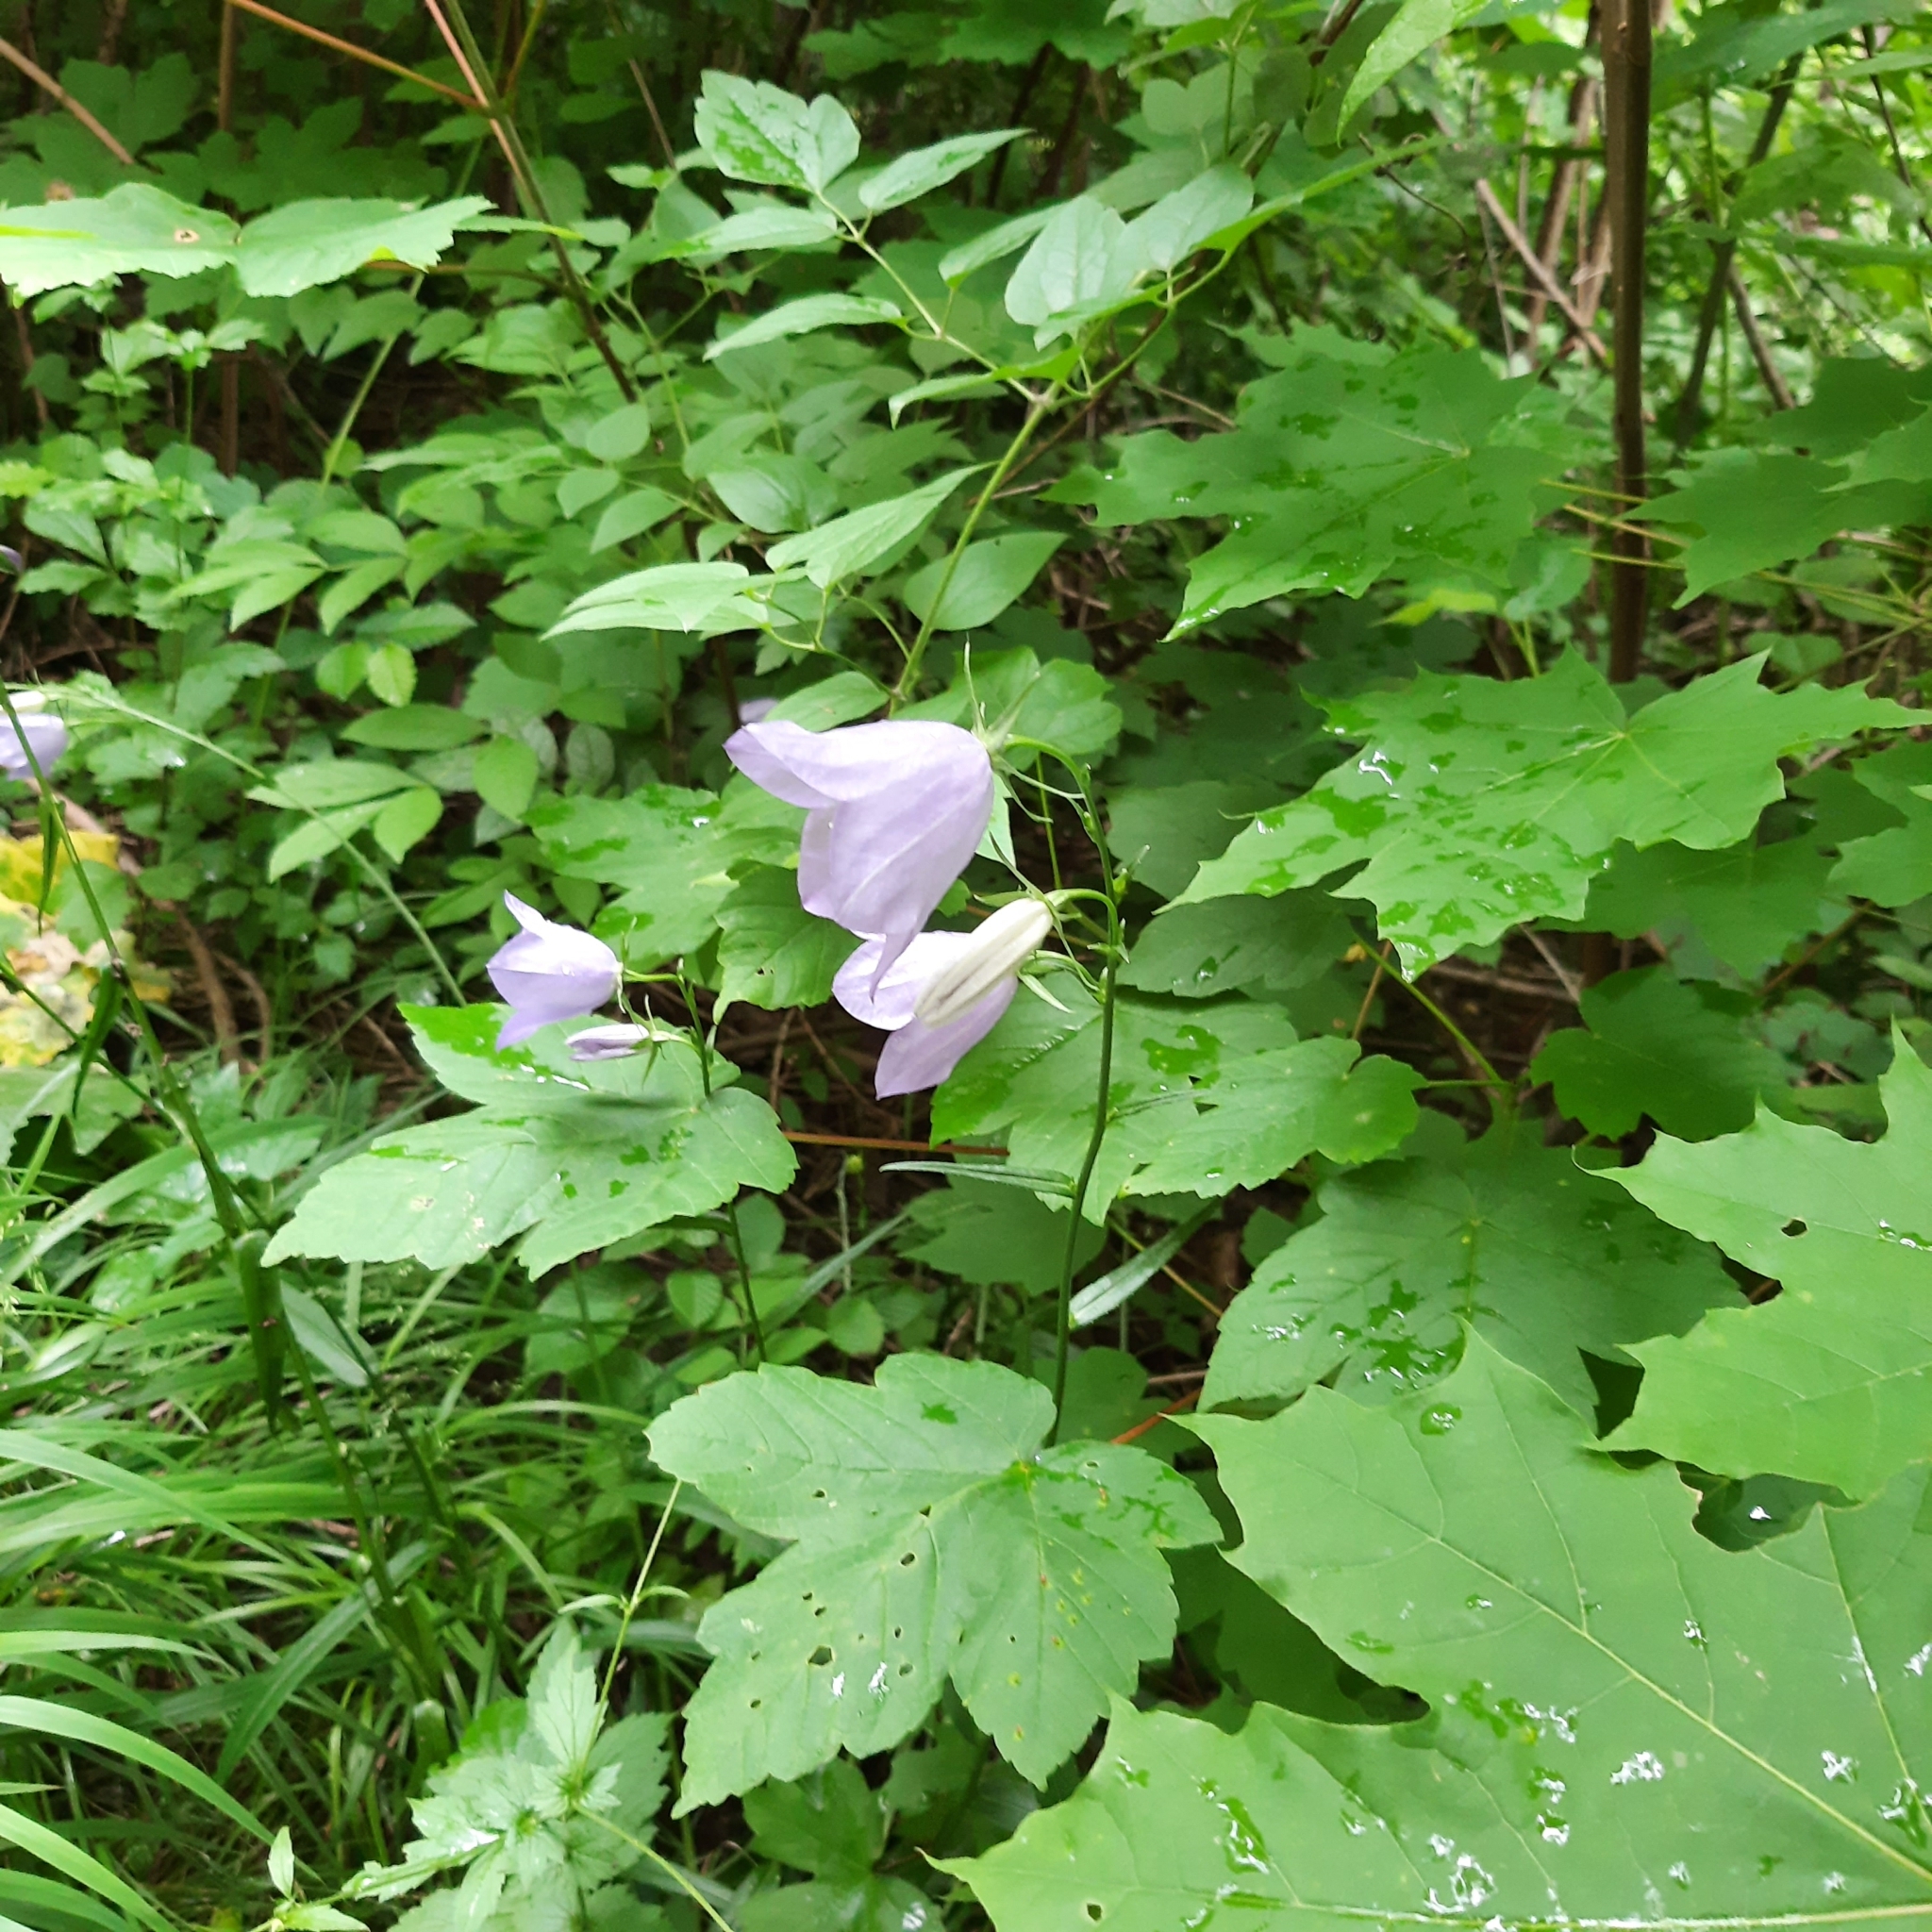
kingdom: Plantae
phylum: Tracheophyta
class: Magnoliopsida
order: Asterales
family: Campanulaceae
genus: Campanula
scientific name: Campanula persicifolia
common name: Peach-leaved bellflower
